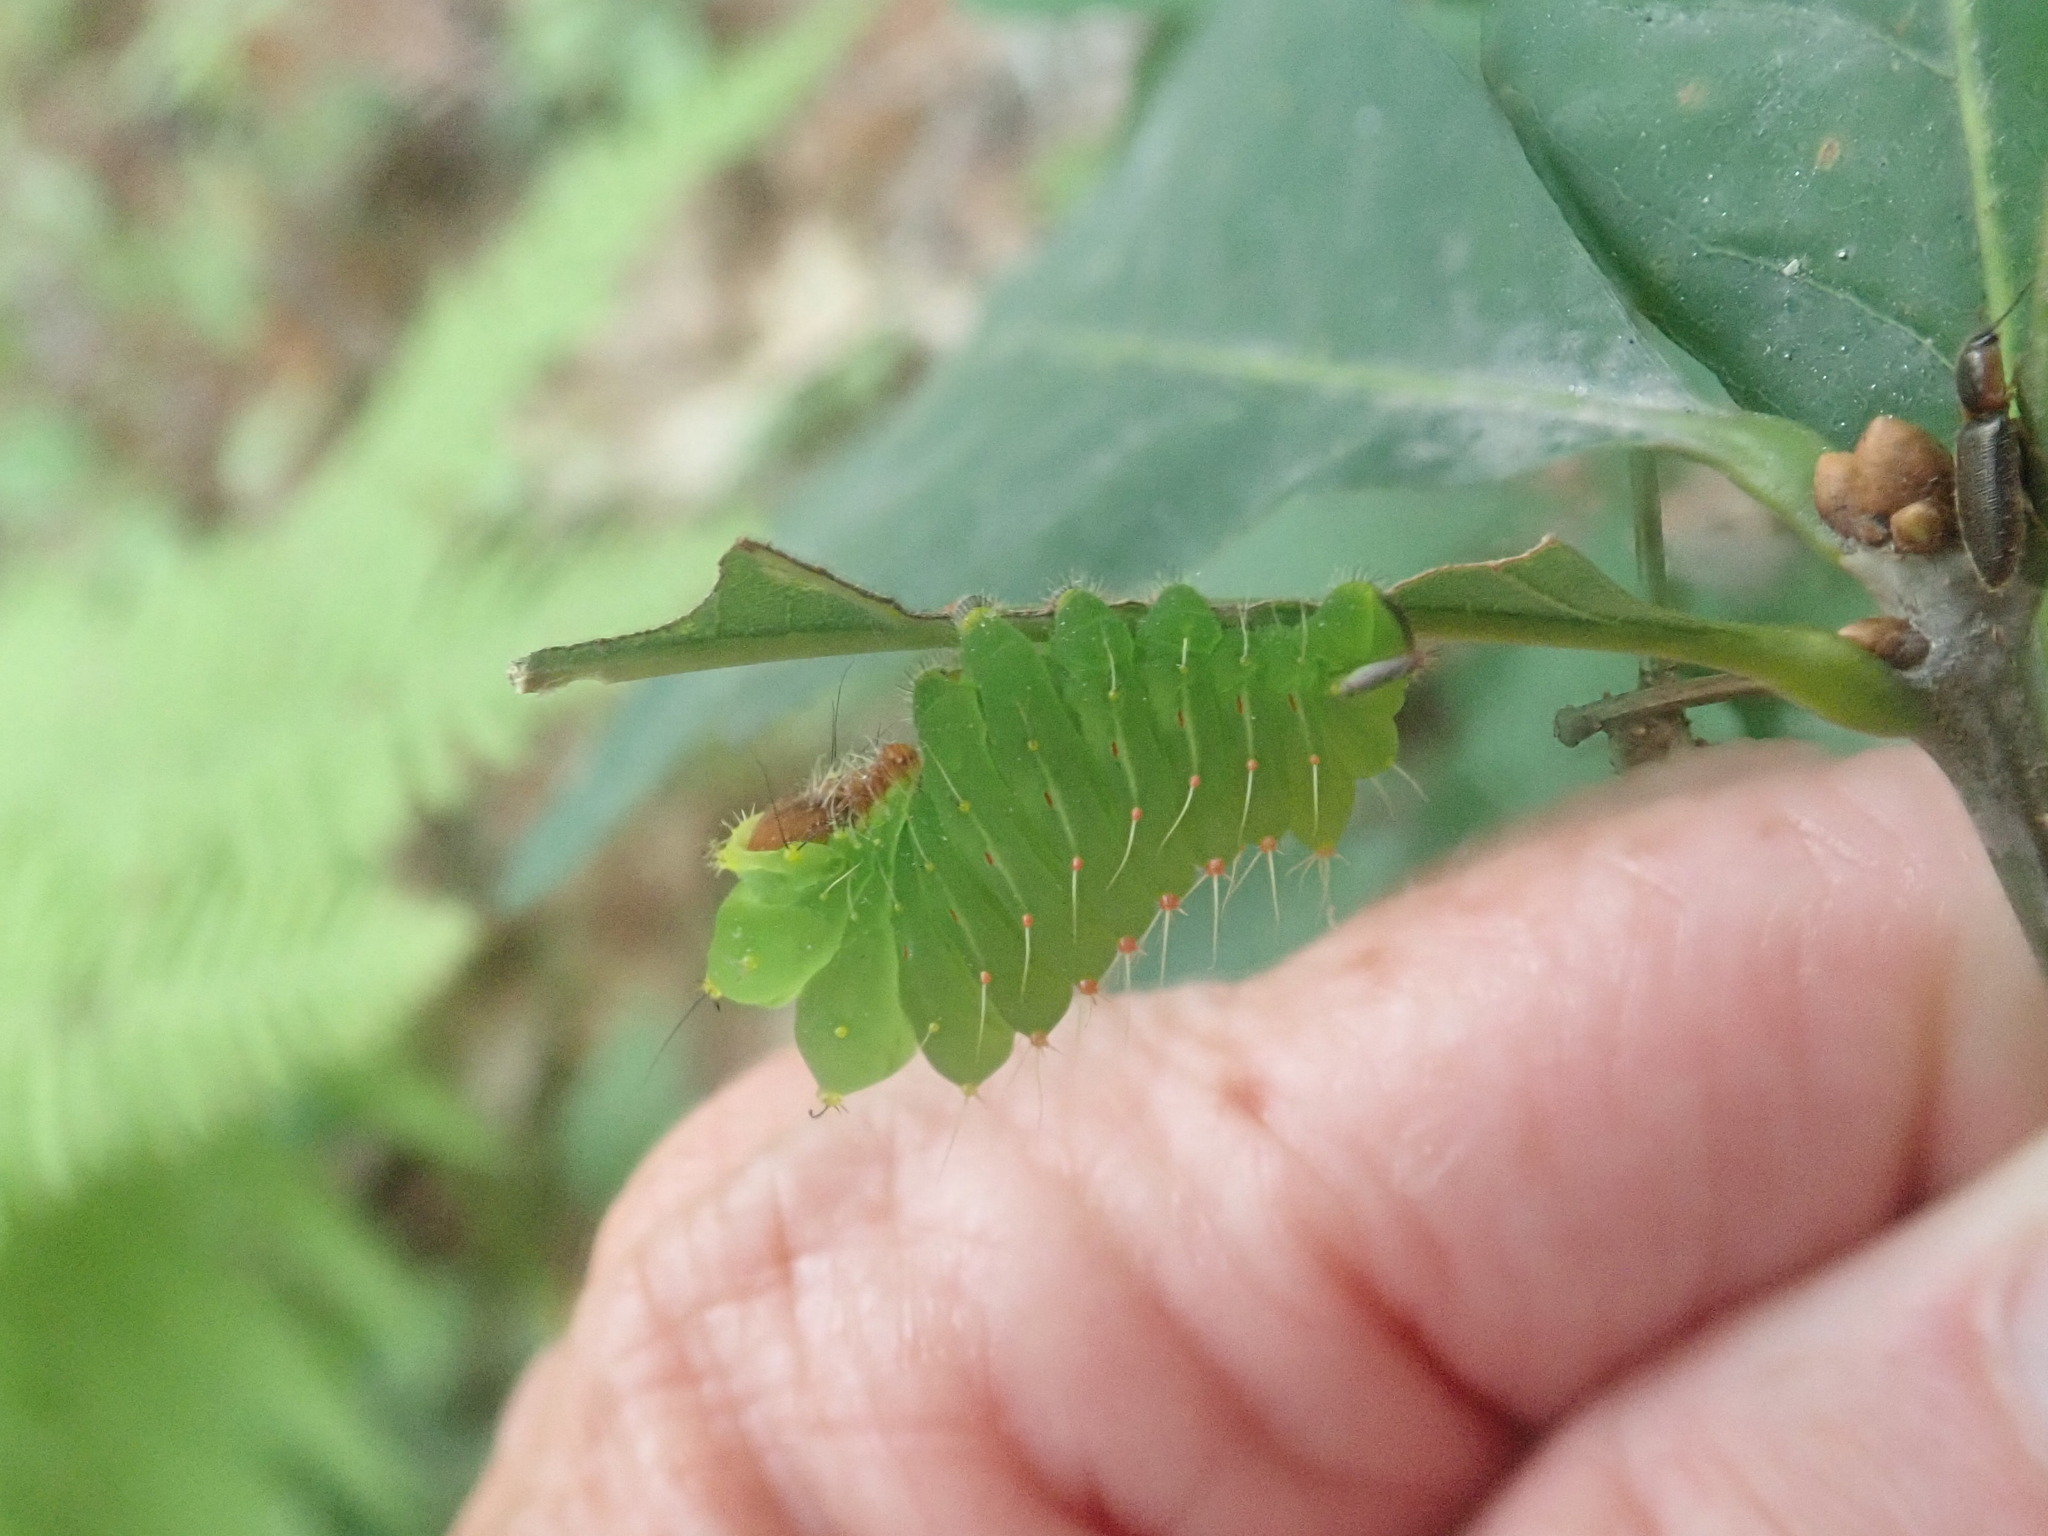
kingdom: Animalia
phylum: Arthropoda
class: Insecta
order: Lepidoptera
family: Saturniidae
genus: Antheraea
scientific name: Antheraea polyphemus
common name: Polyphemus moth
